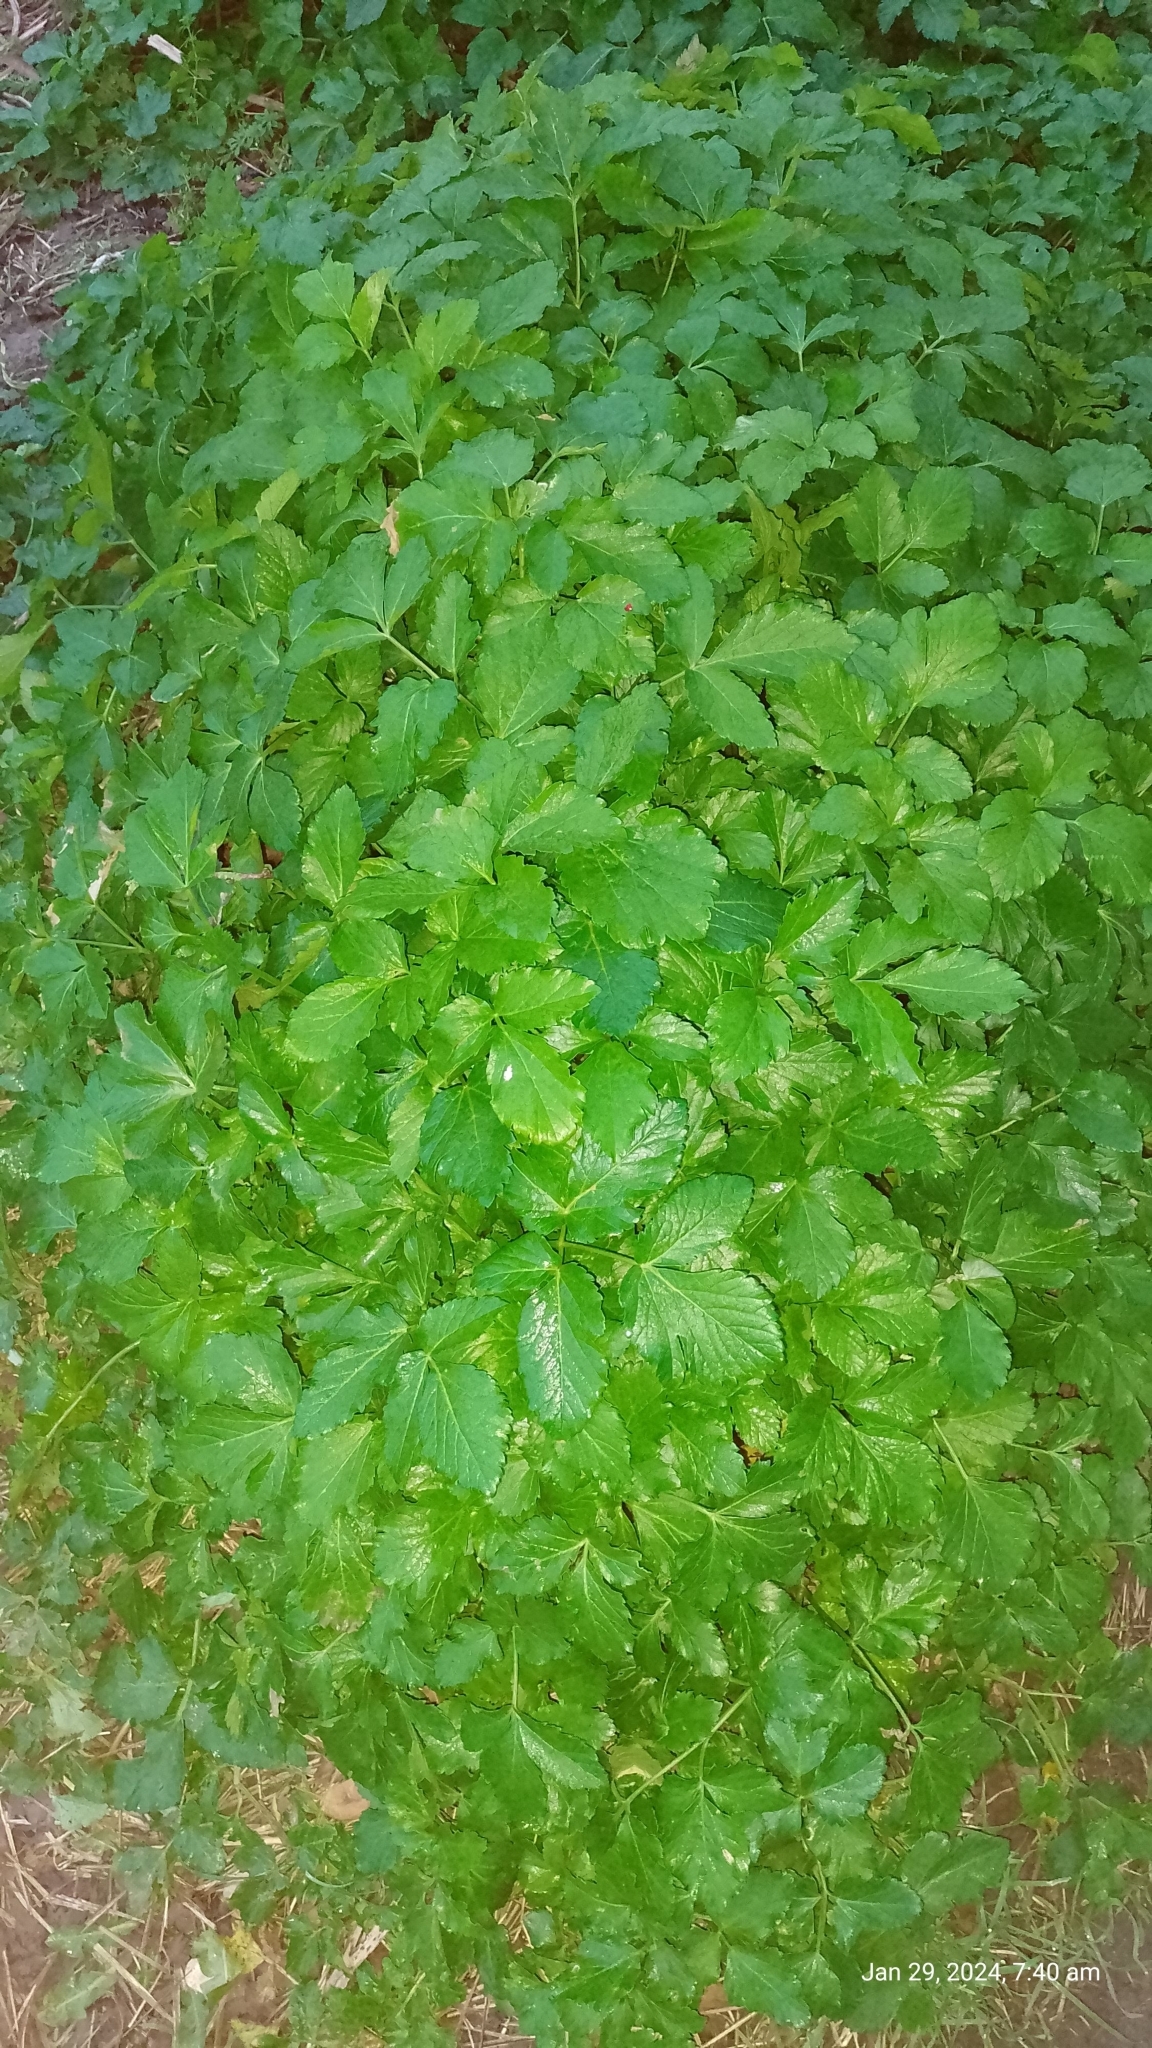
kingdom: Plantae
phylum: Tracheophyta
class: Magnoliopsida
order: Apiales
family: Apiaceae
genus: Smyrnium
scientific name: Smyrnium olusatrum
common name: Alexanders
